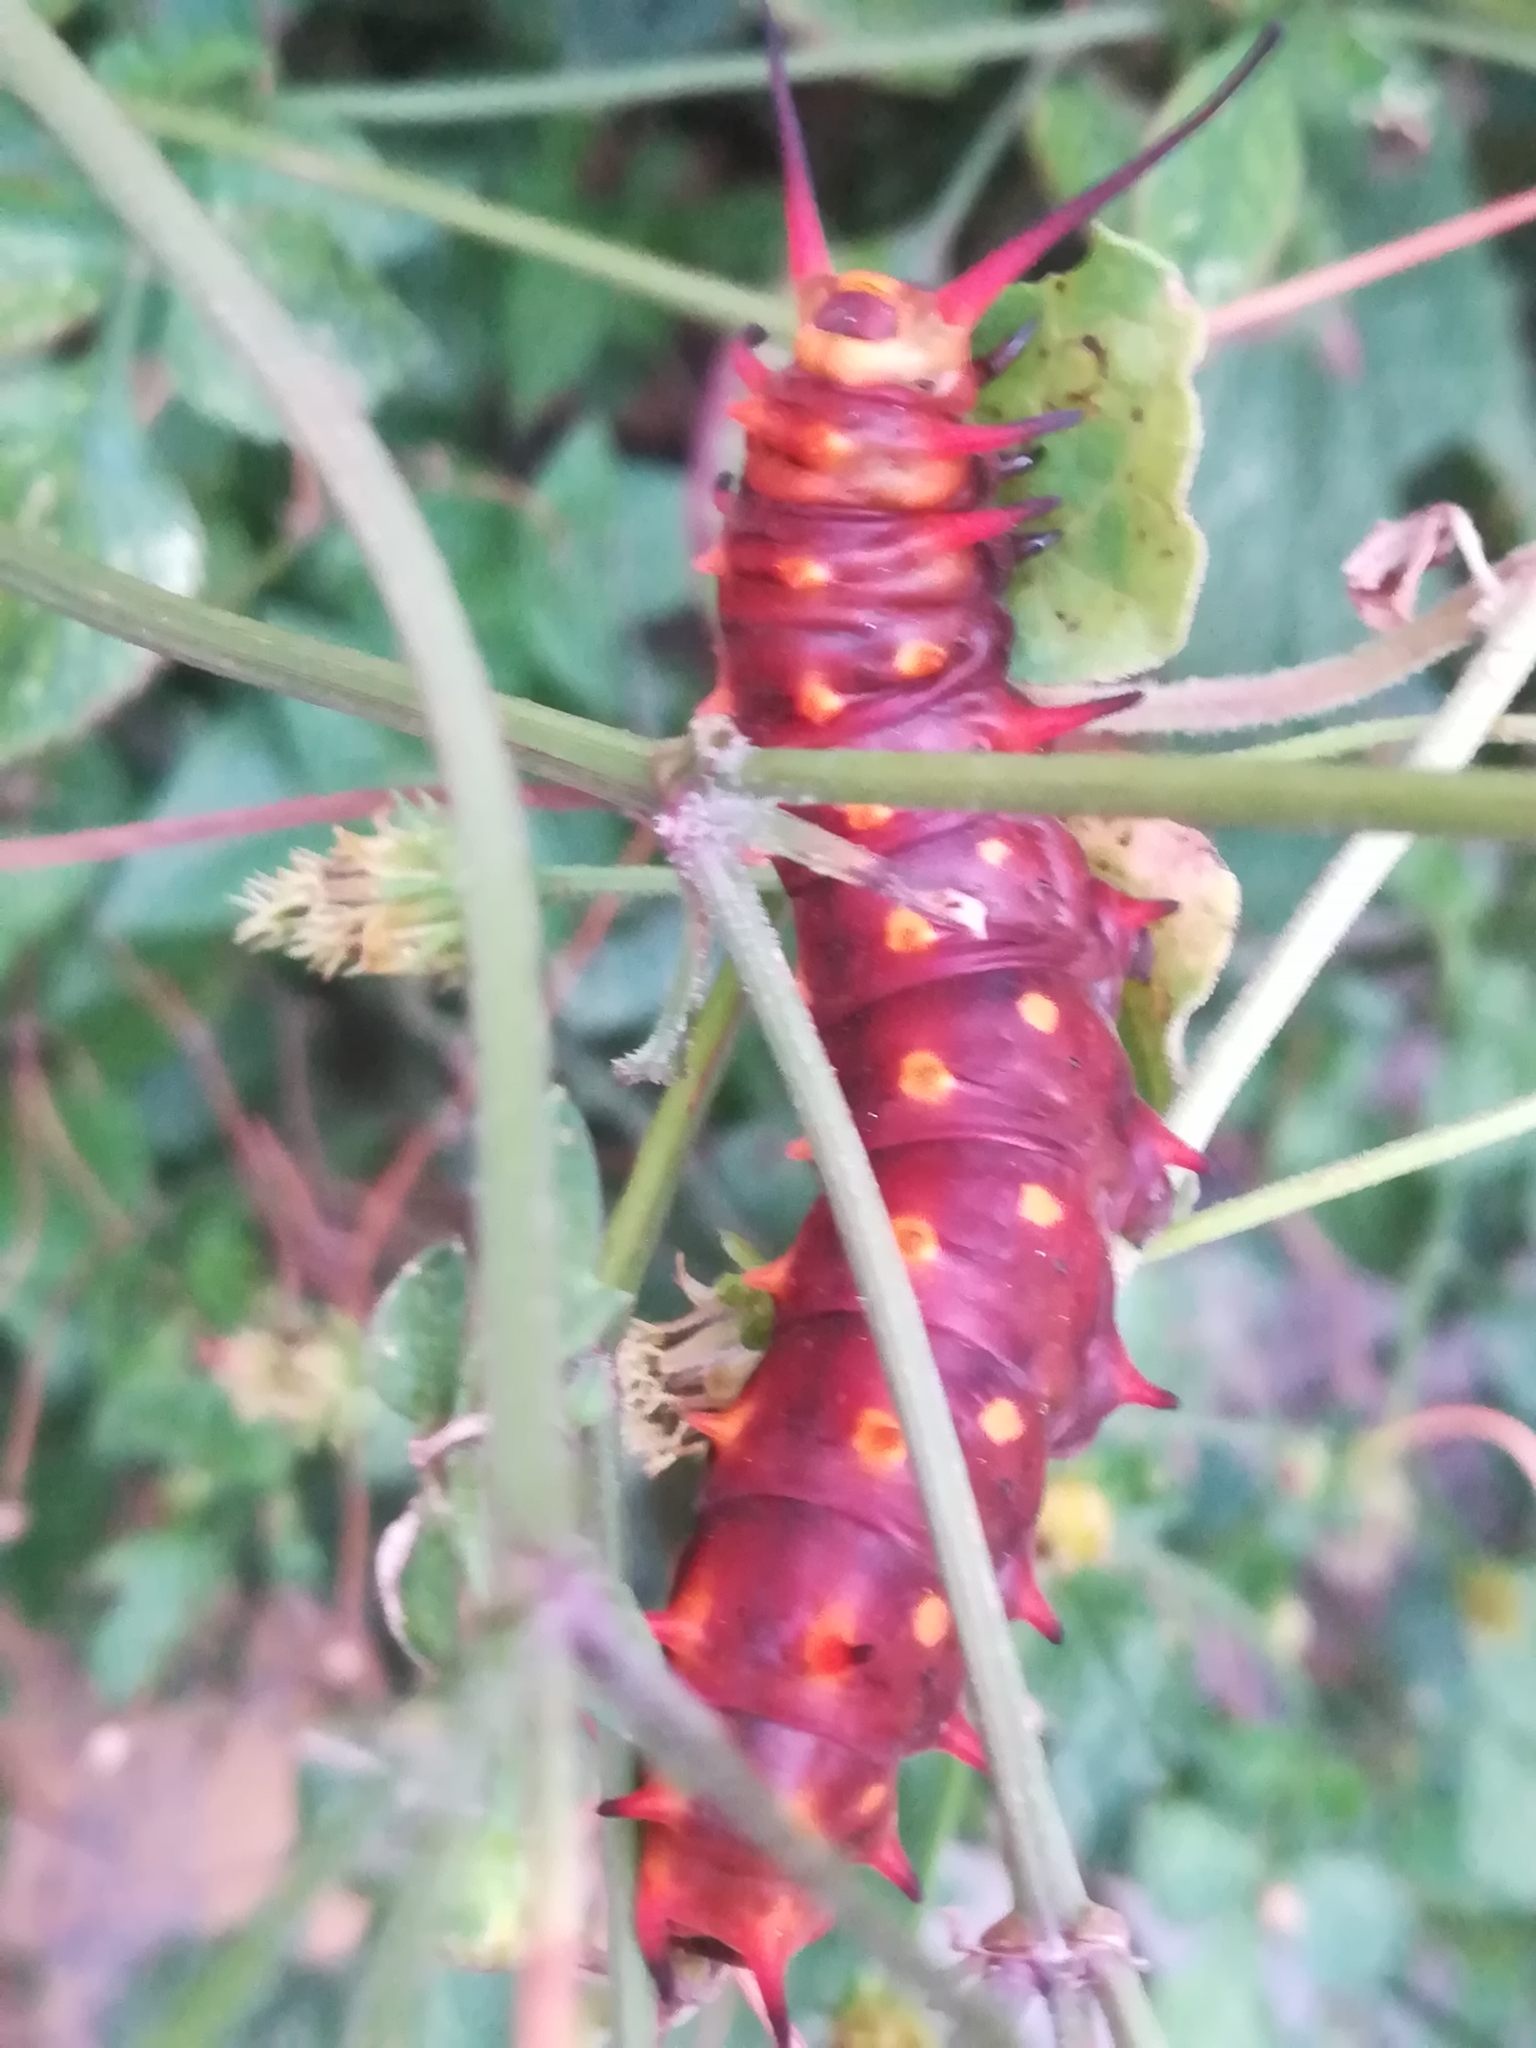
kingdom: Animalia
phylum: Arthropoda
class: Insecta
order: Lepidoptera
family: Papilionidae
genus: Battus
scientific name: Battus philenor
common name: Pipevine swallowtail
